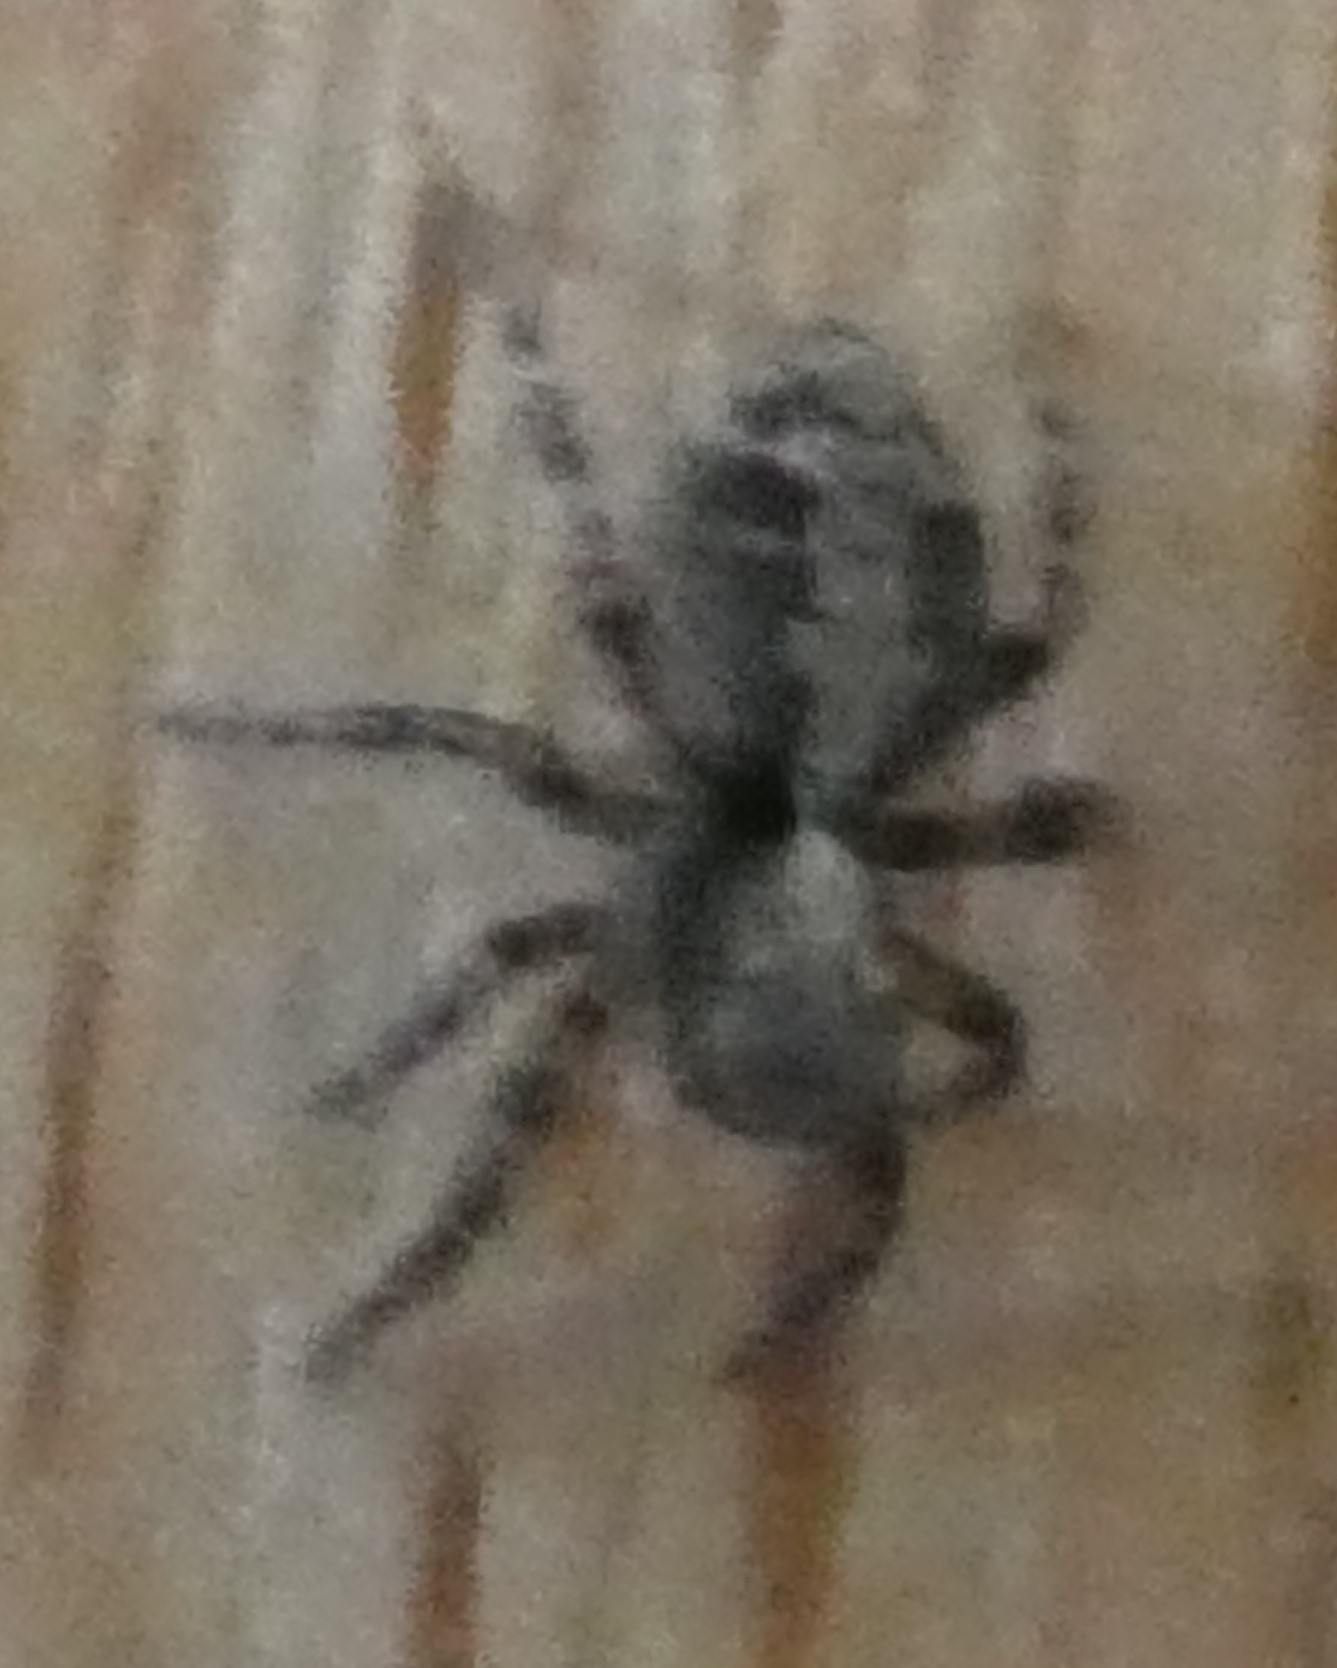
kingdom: Animalia
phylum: Arthropoda
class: Arachnida
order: Araneae
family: Salticidae
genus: Pseudeuophrys
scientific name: Pseudeuophrys lanigera
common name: Jumping spider
